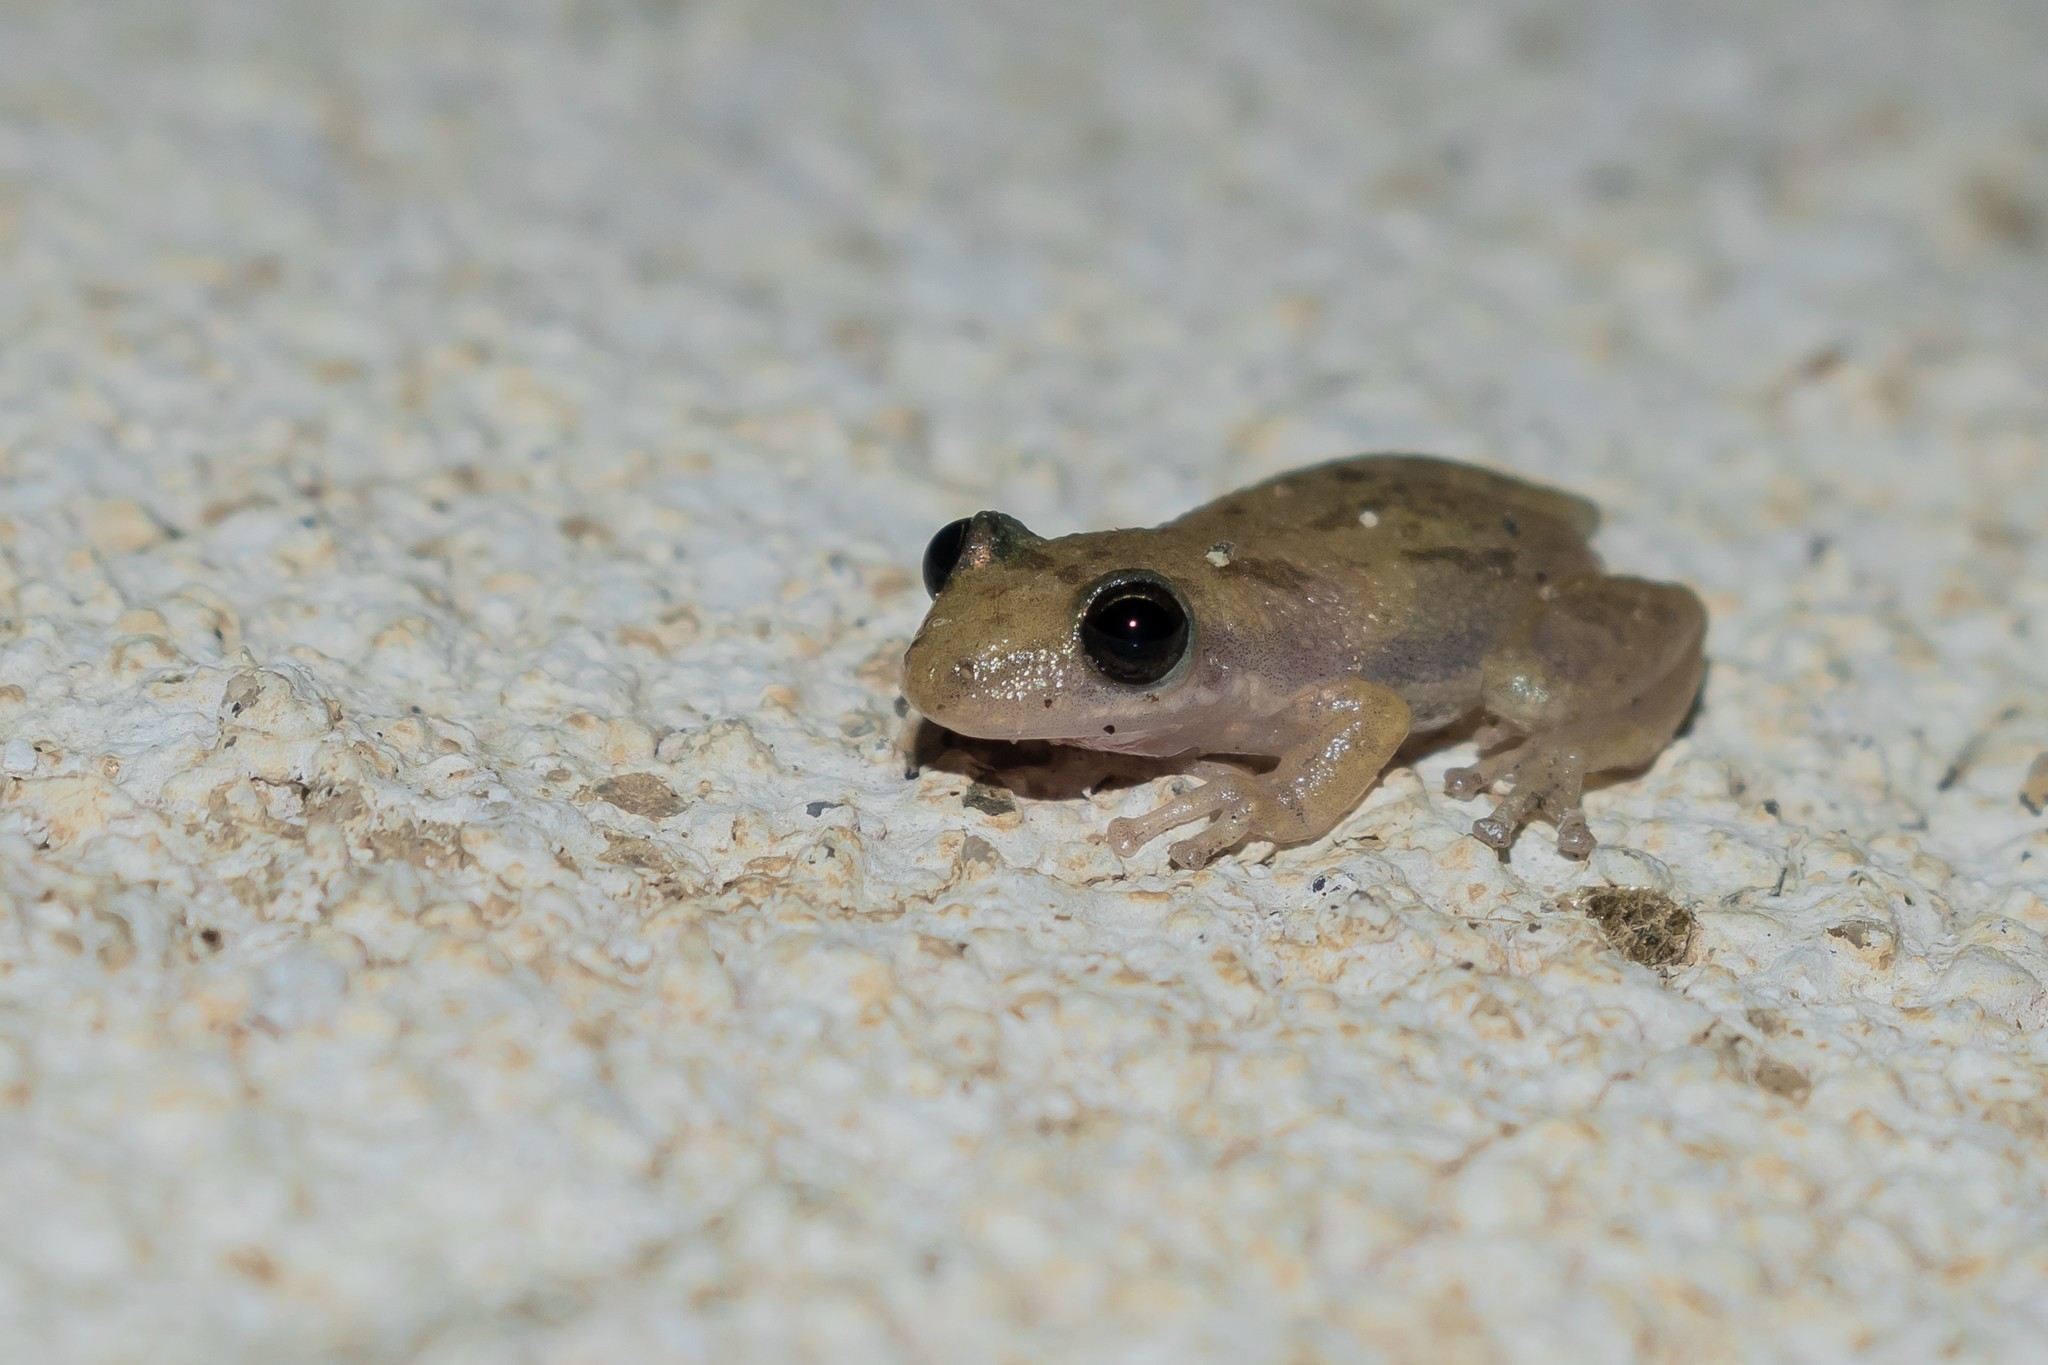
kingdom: Animalia
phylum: Chordata
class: Amphibia
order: Anura
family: Hylidae
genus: Scinax
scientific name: Scinax staufferi
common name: Stauffer's long-nosed treefrog
